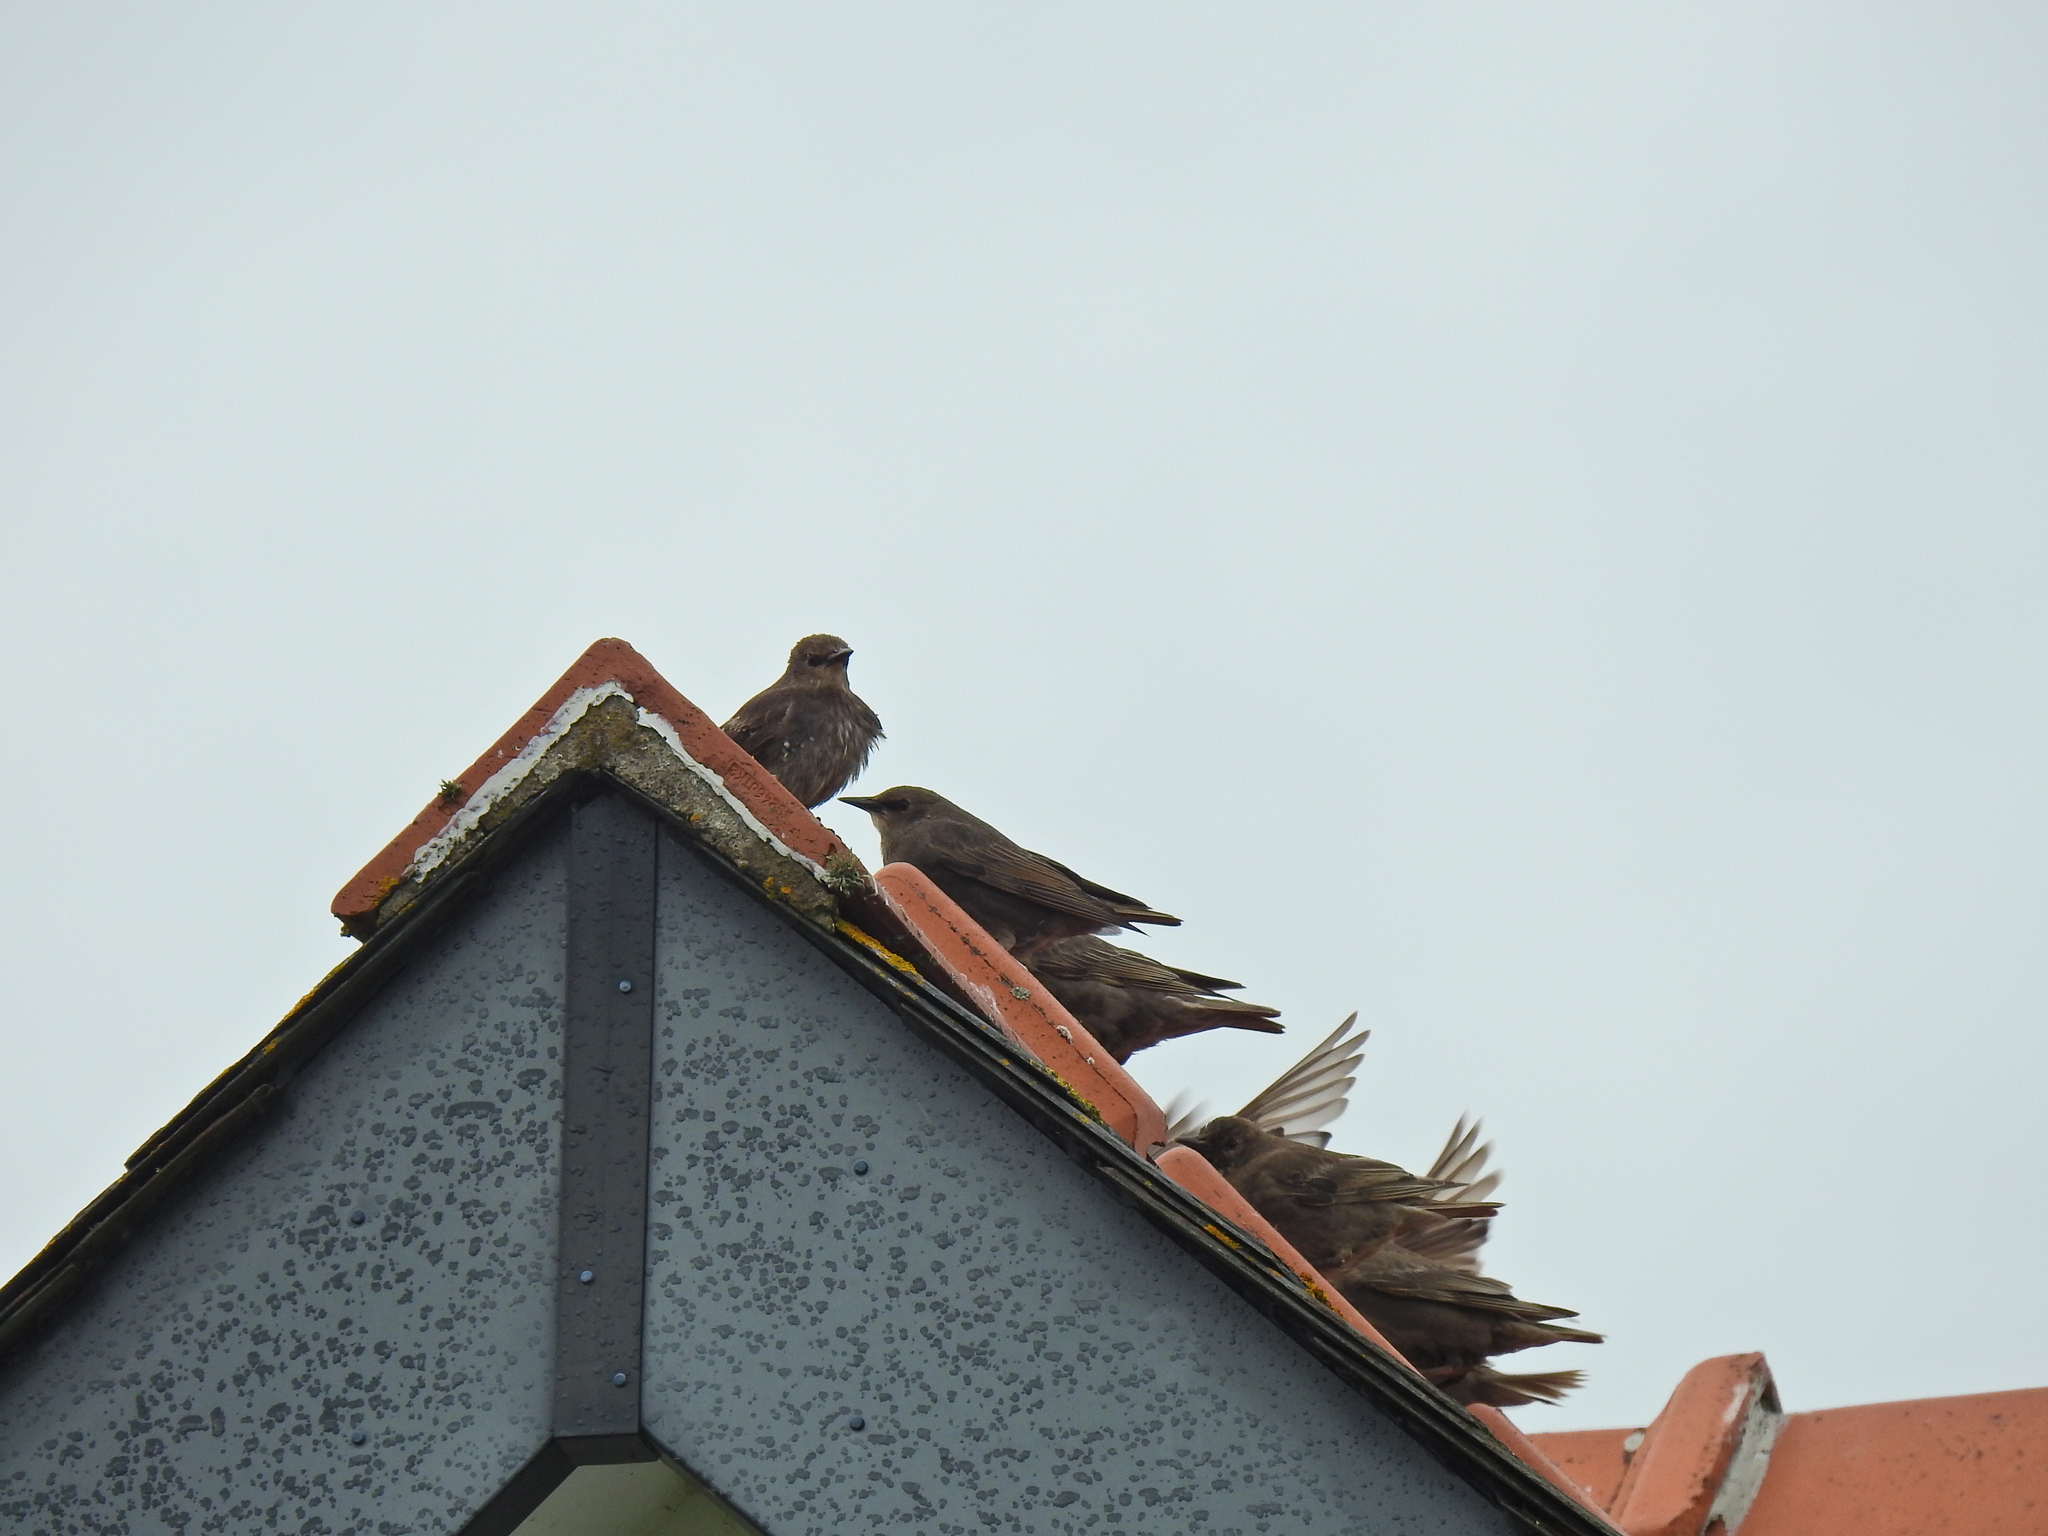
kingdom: Animalia
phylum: Chordata
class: Aves
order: Passeriformes
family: Sturnidae
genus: Sturnus
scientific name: Sturnus vulgaris
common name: Common starling
